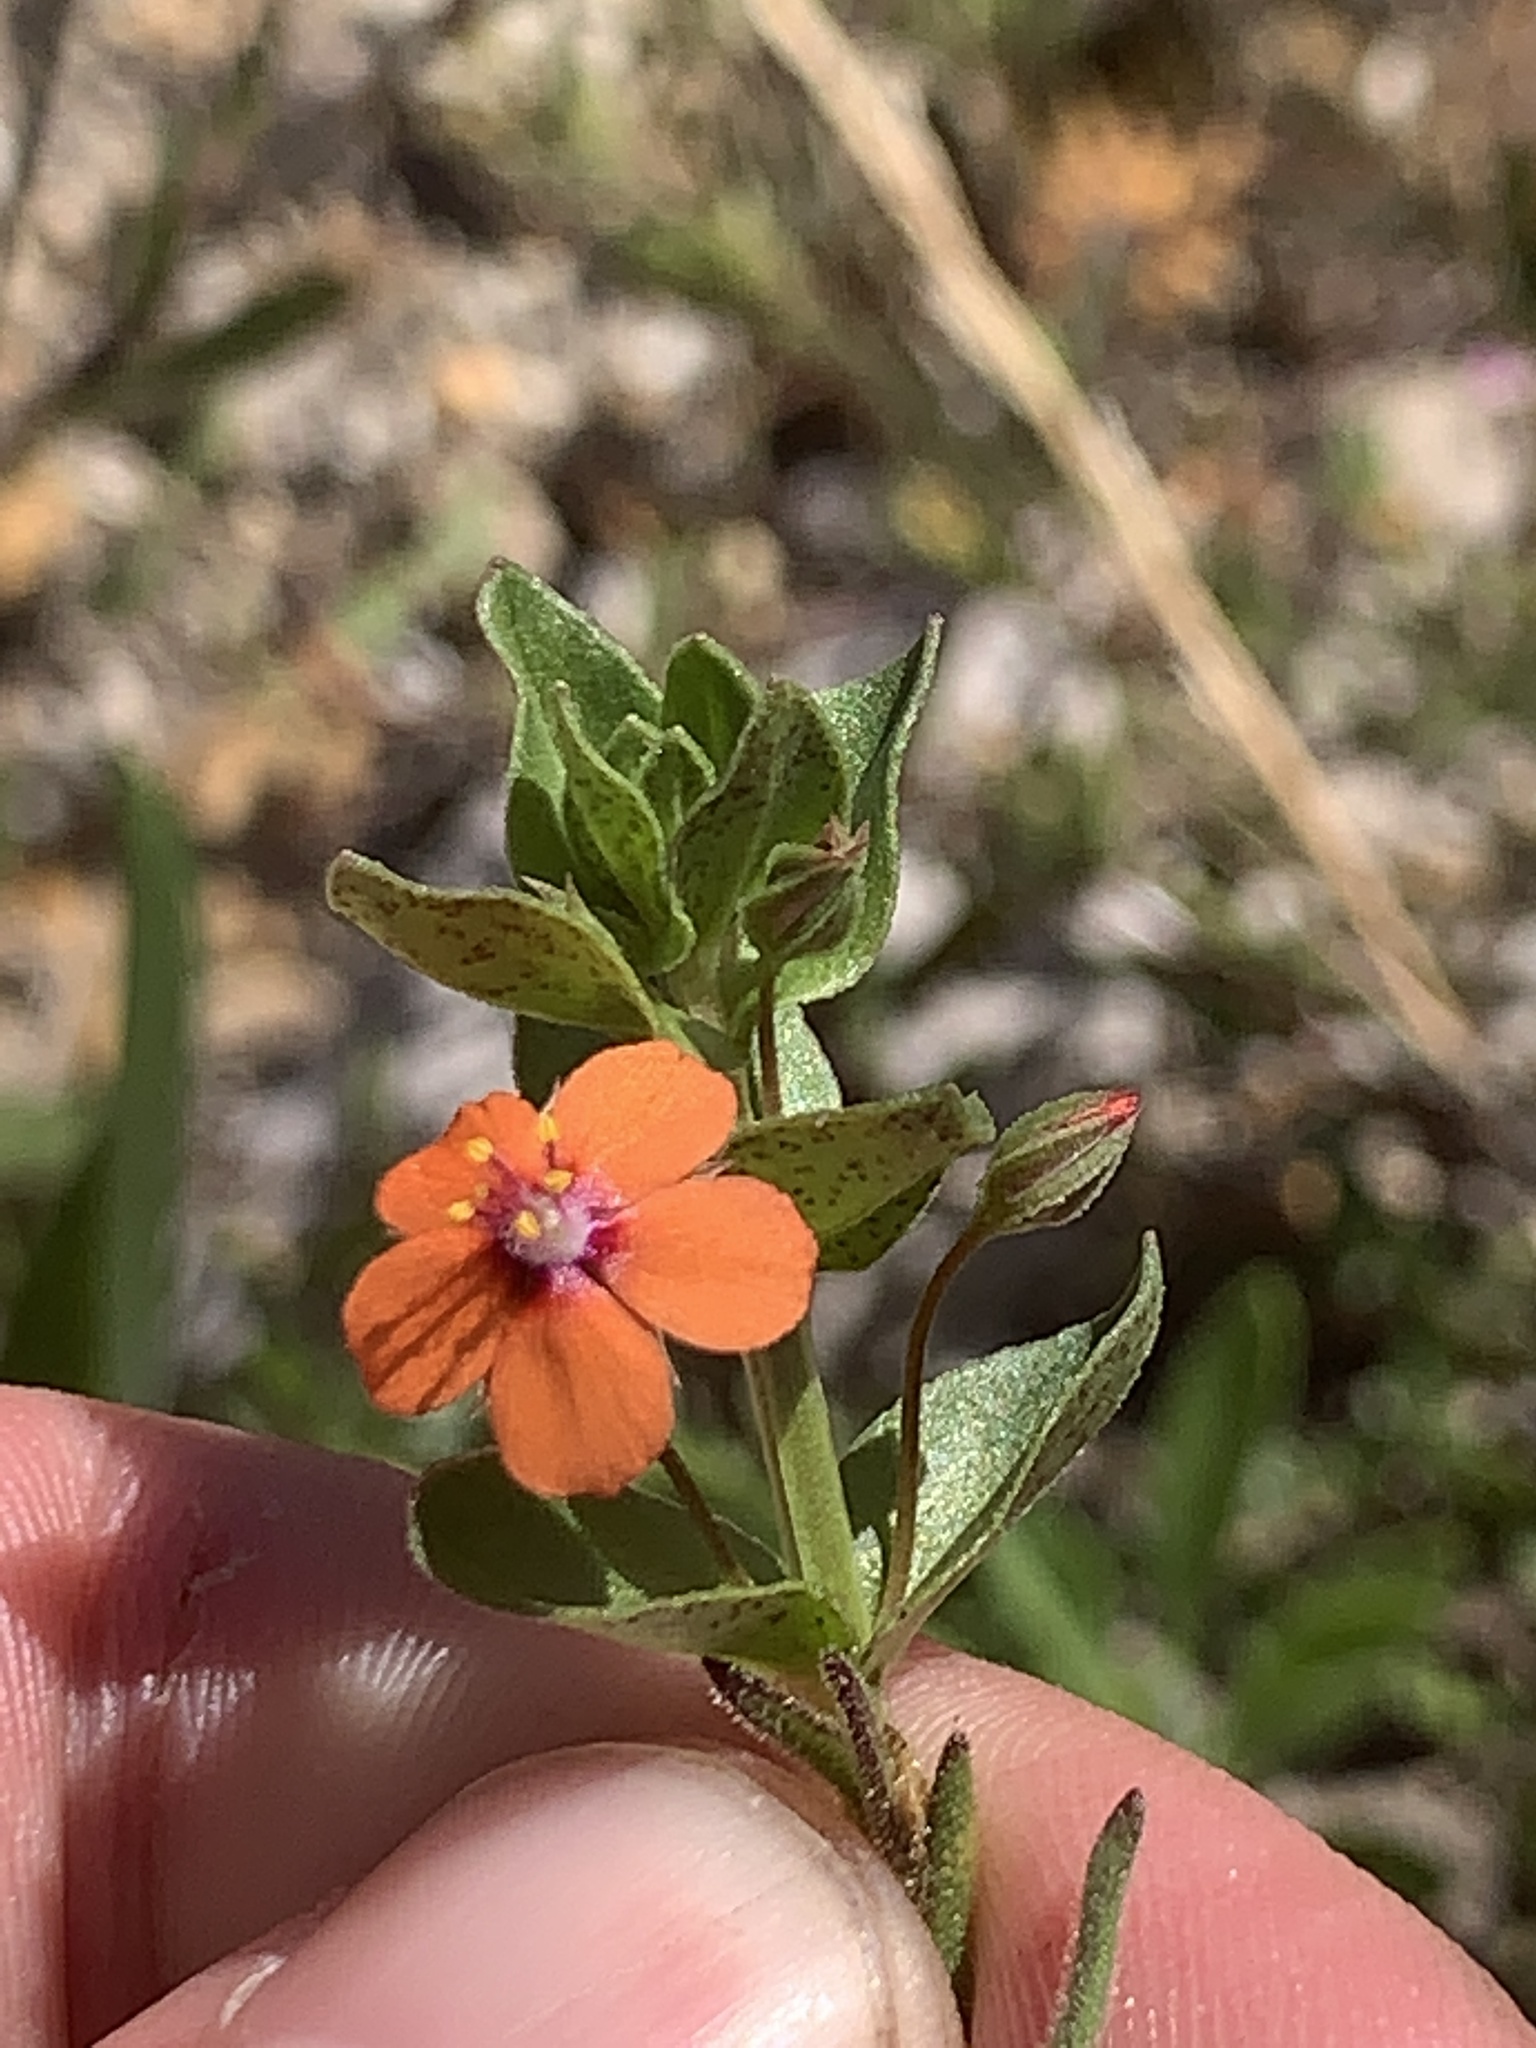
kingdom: Plantae
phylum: Tracheophyta
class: Magnoliopsida
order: Ericales
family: Primulaceae
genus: Lysimachia
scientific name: Lysimachia arvensis
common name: Scarlet pimpernel
